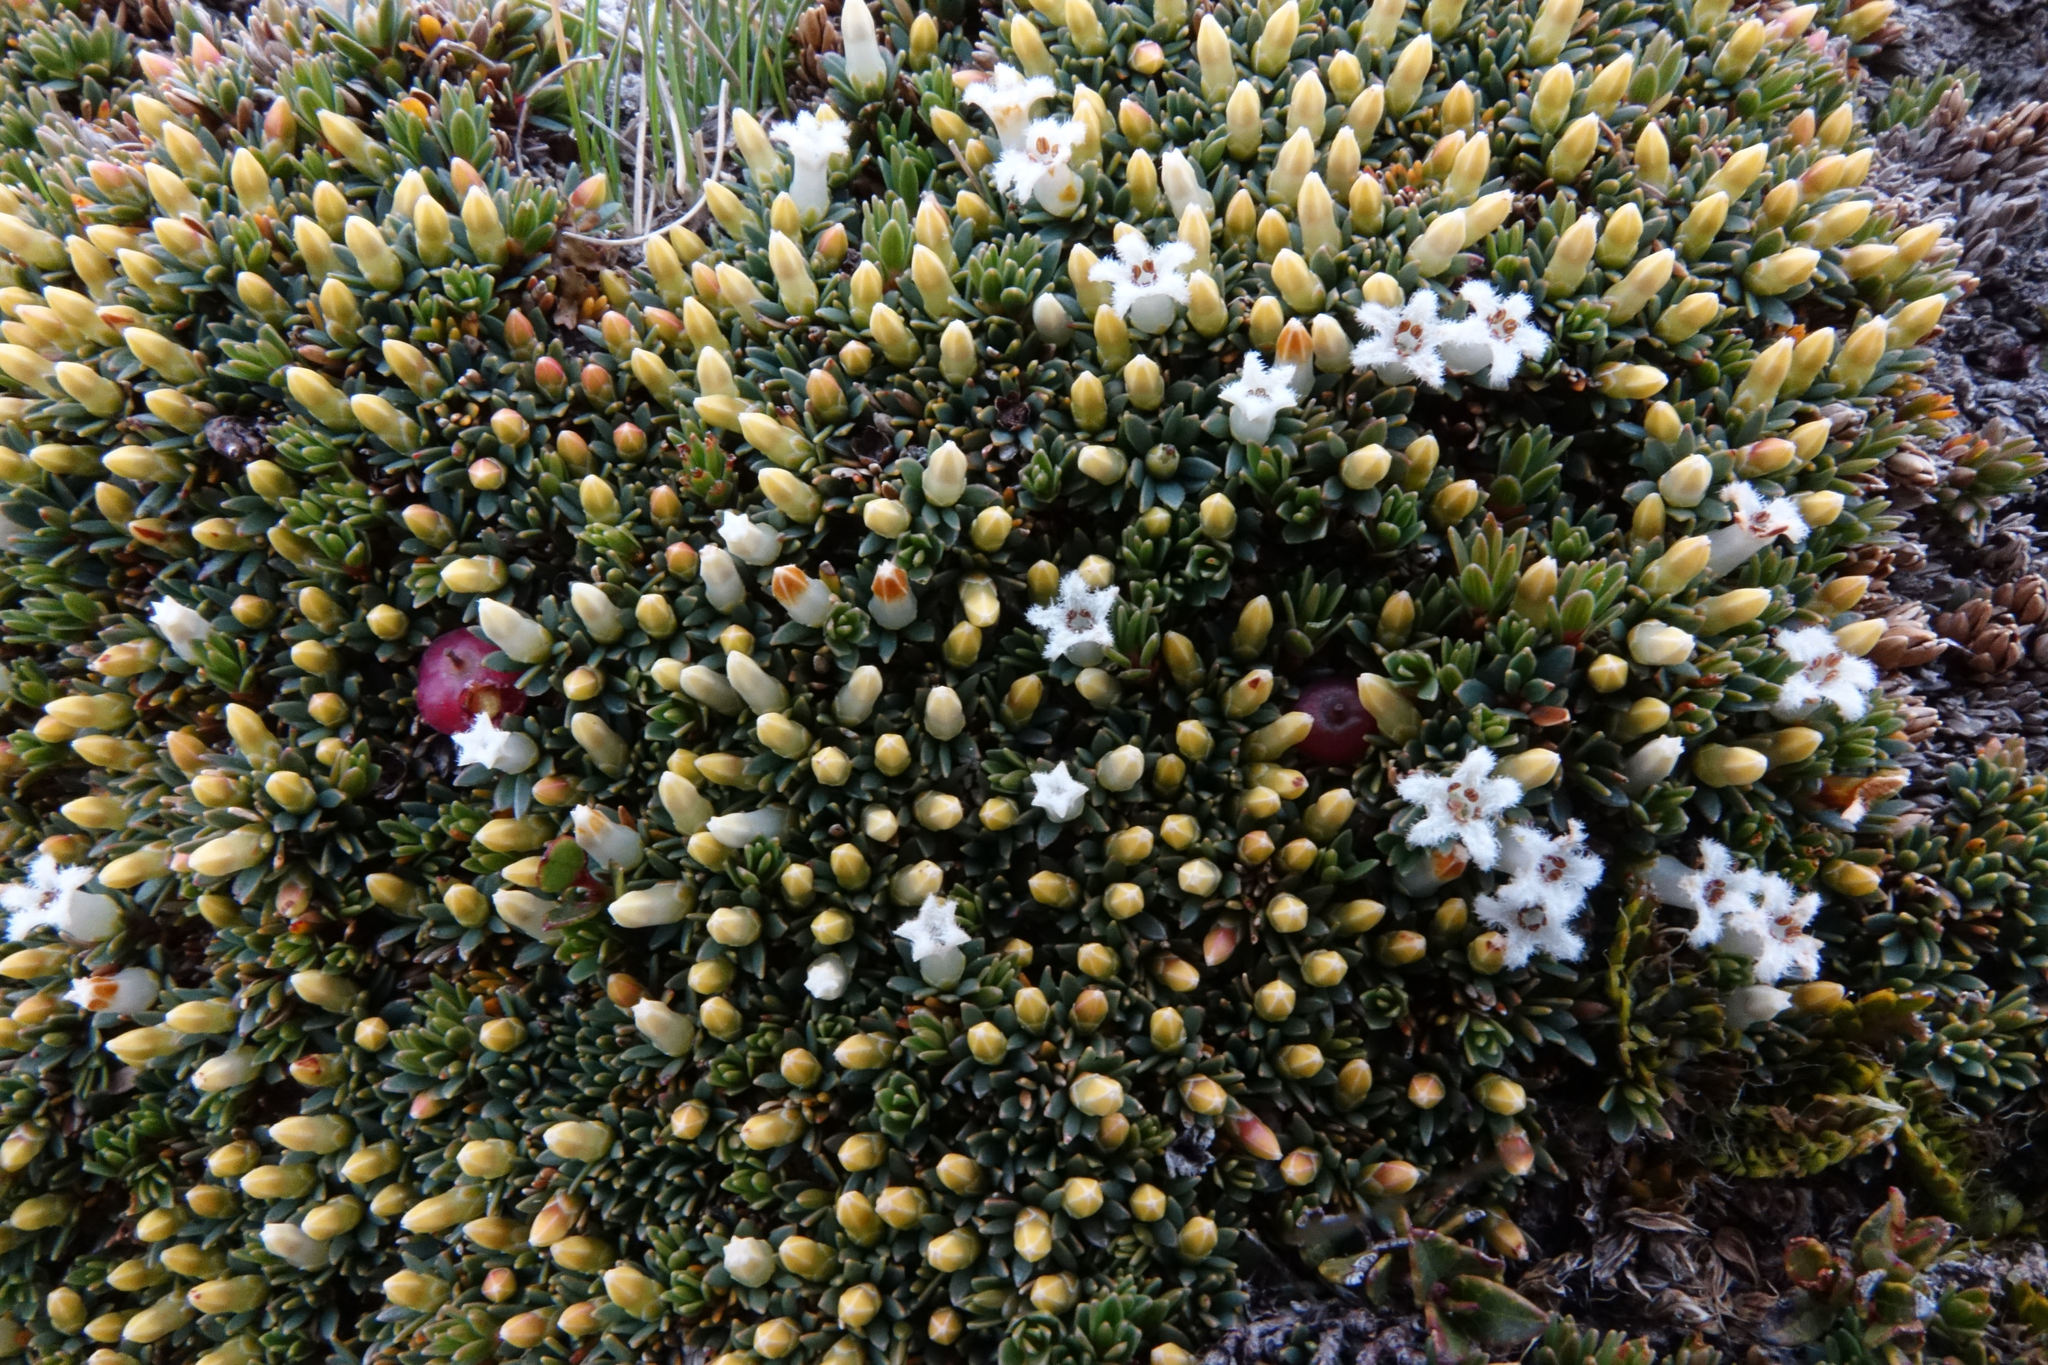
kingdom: Plantae
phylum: Tracheophyta
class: Magnoliopsida
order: Ericales
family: Ericaceae
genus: Pentachondra
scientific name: Pentachondra pumila
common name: Carpet-heath
